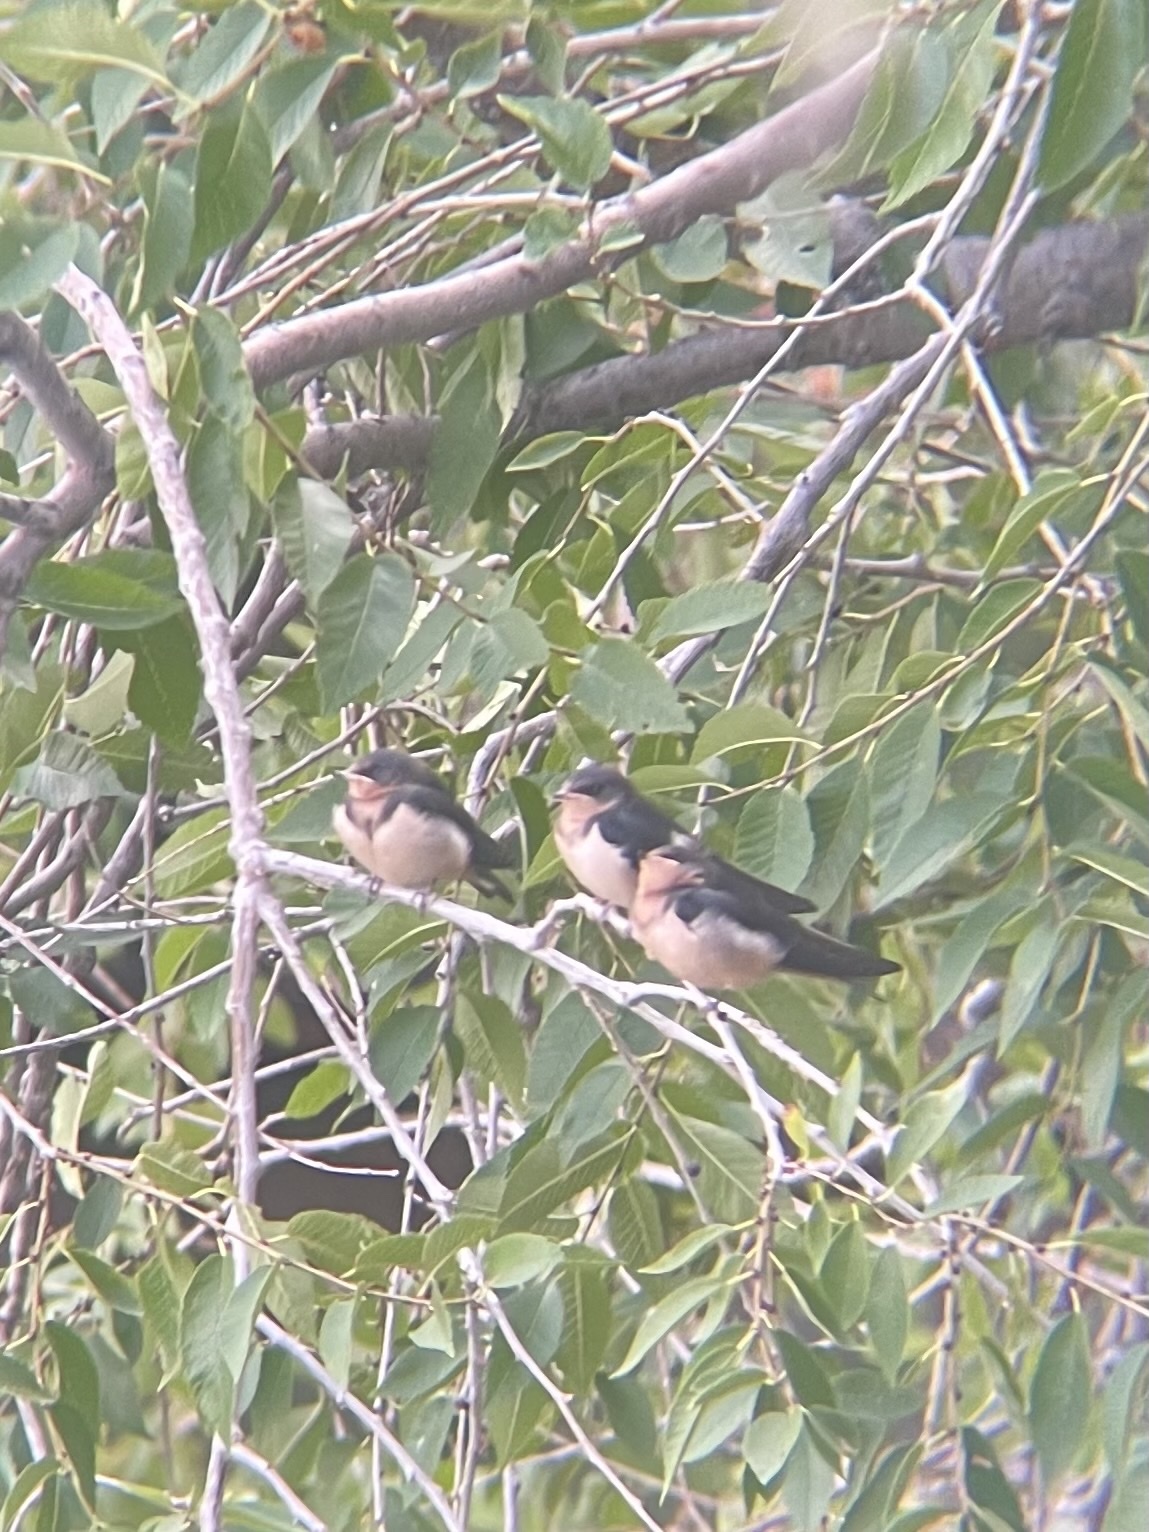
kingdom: Animalia
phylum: Chordata
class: Aves
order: Passeriformes
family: Hirundinidae
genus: Hirundo
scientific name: Hirundo rustica
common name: Barn swallow
